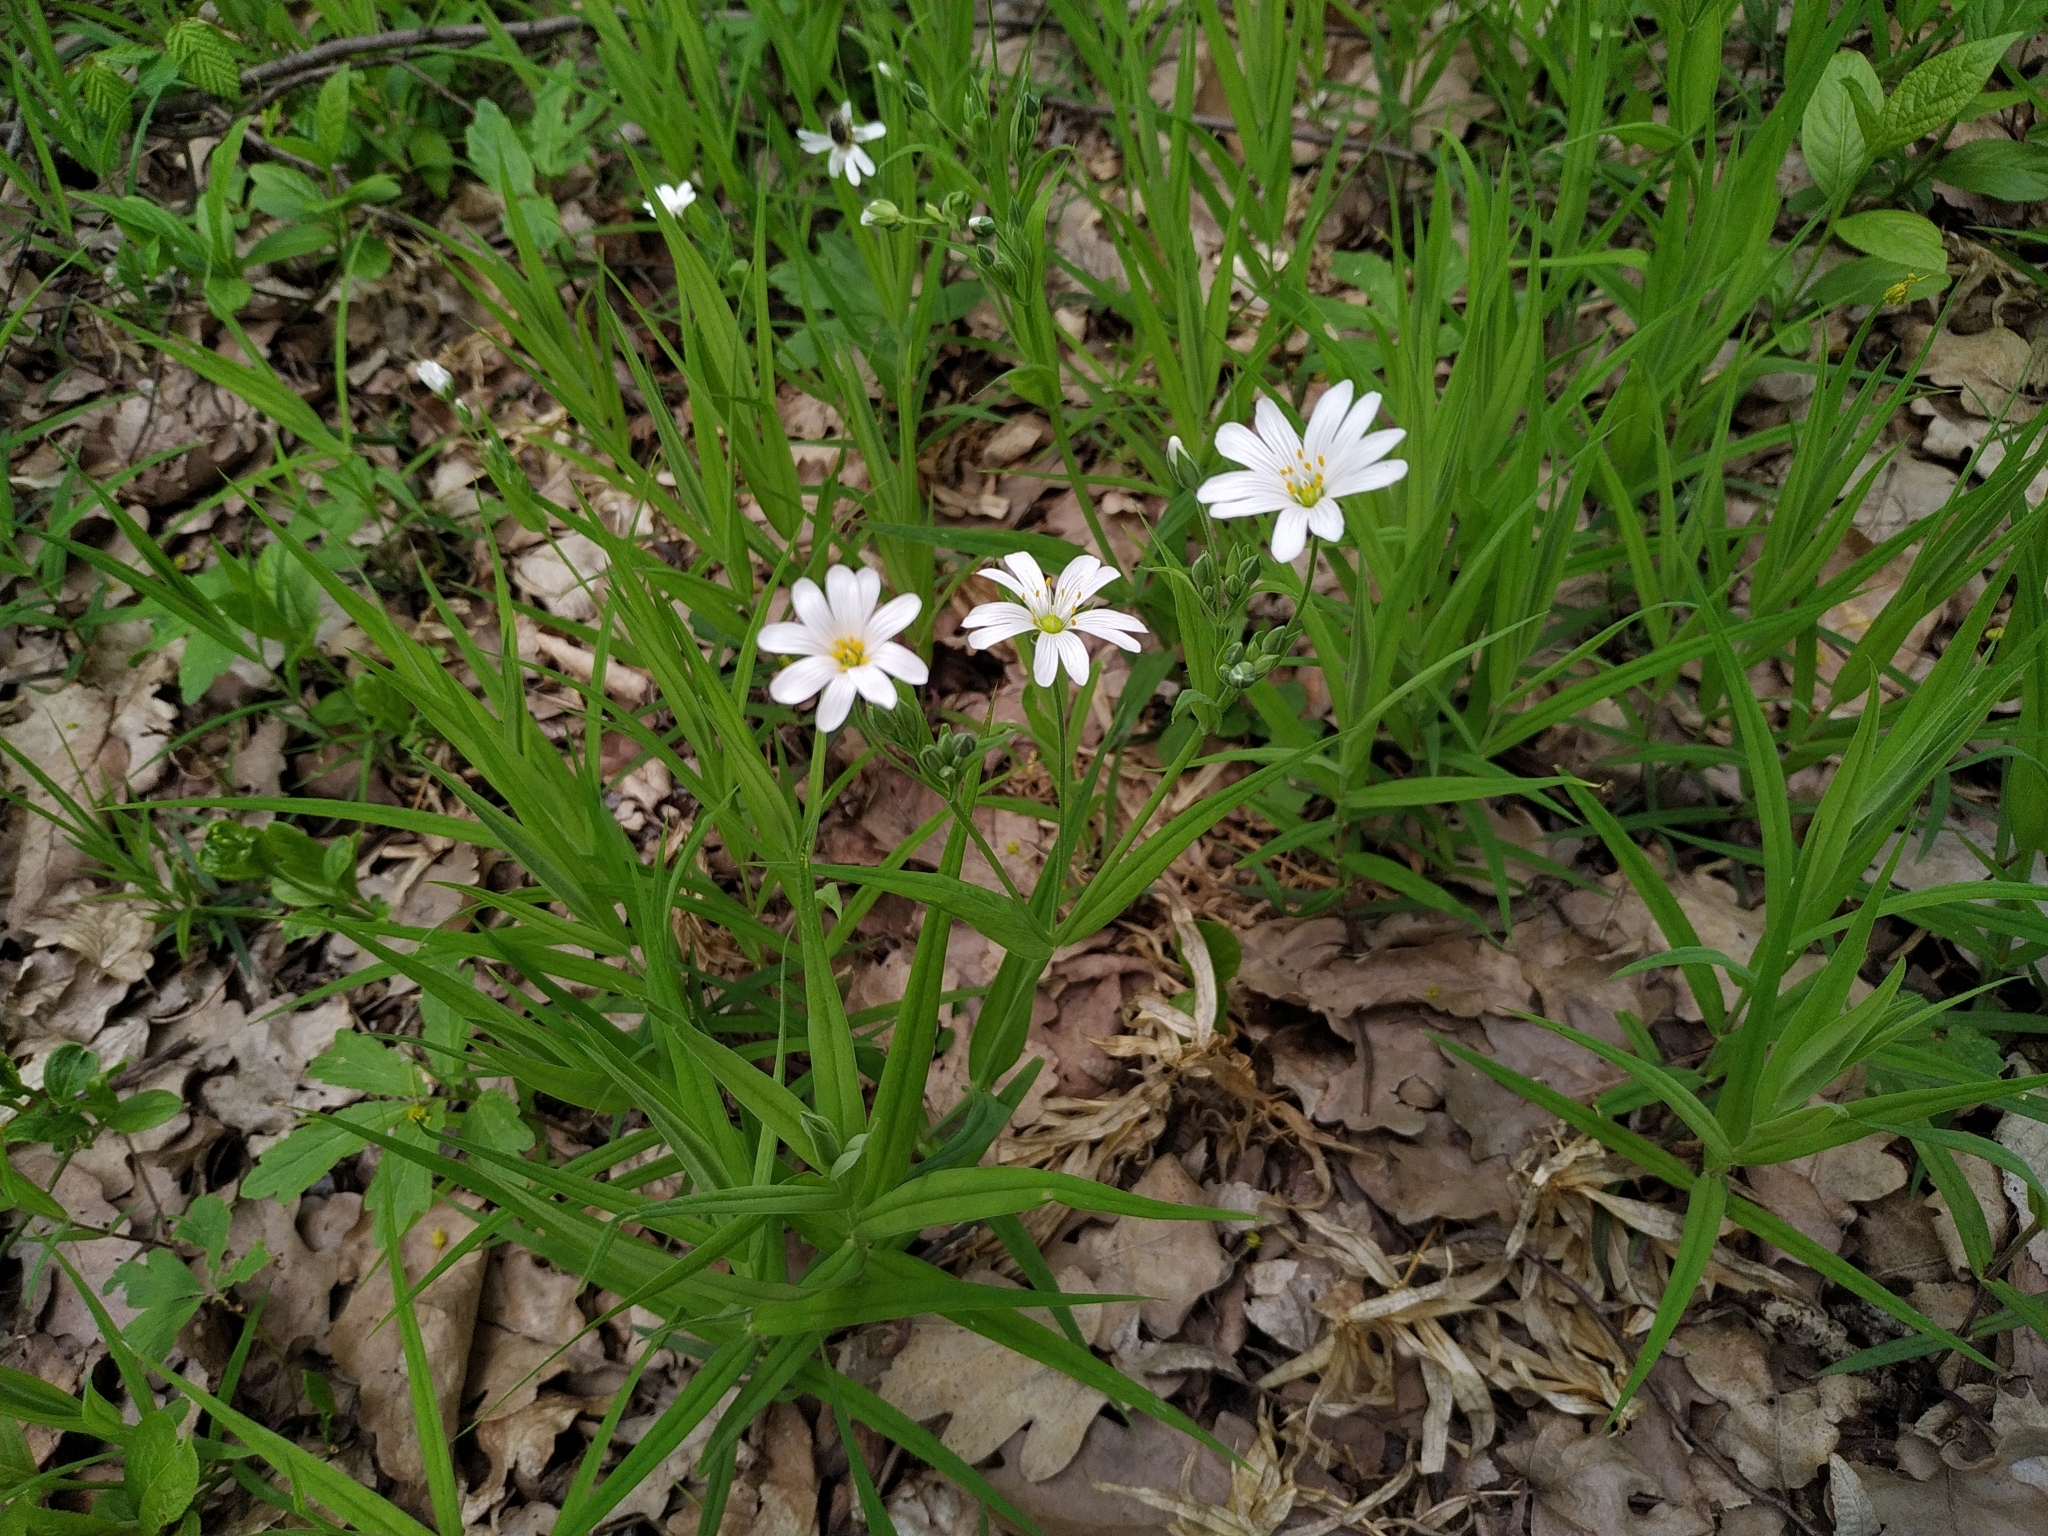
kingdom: Plantae
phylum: Tracheophyta
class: Magnoliopsida
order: Caryophyllales
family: Caryophyllaceae
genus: Rabelera
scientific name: Rabelera holostea
